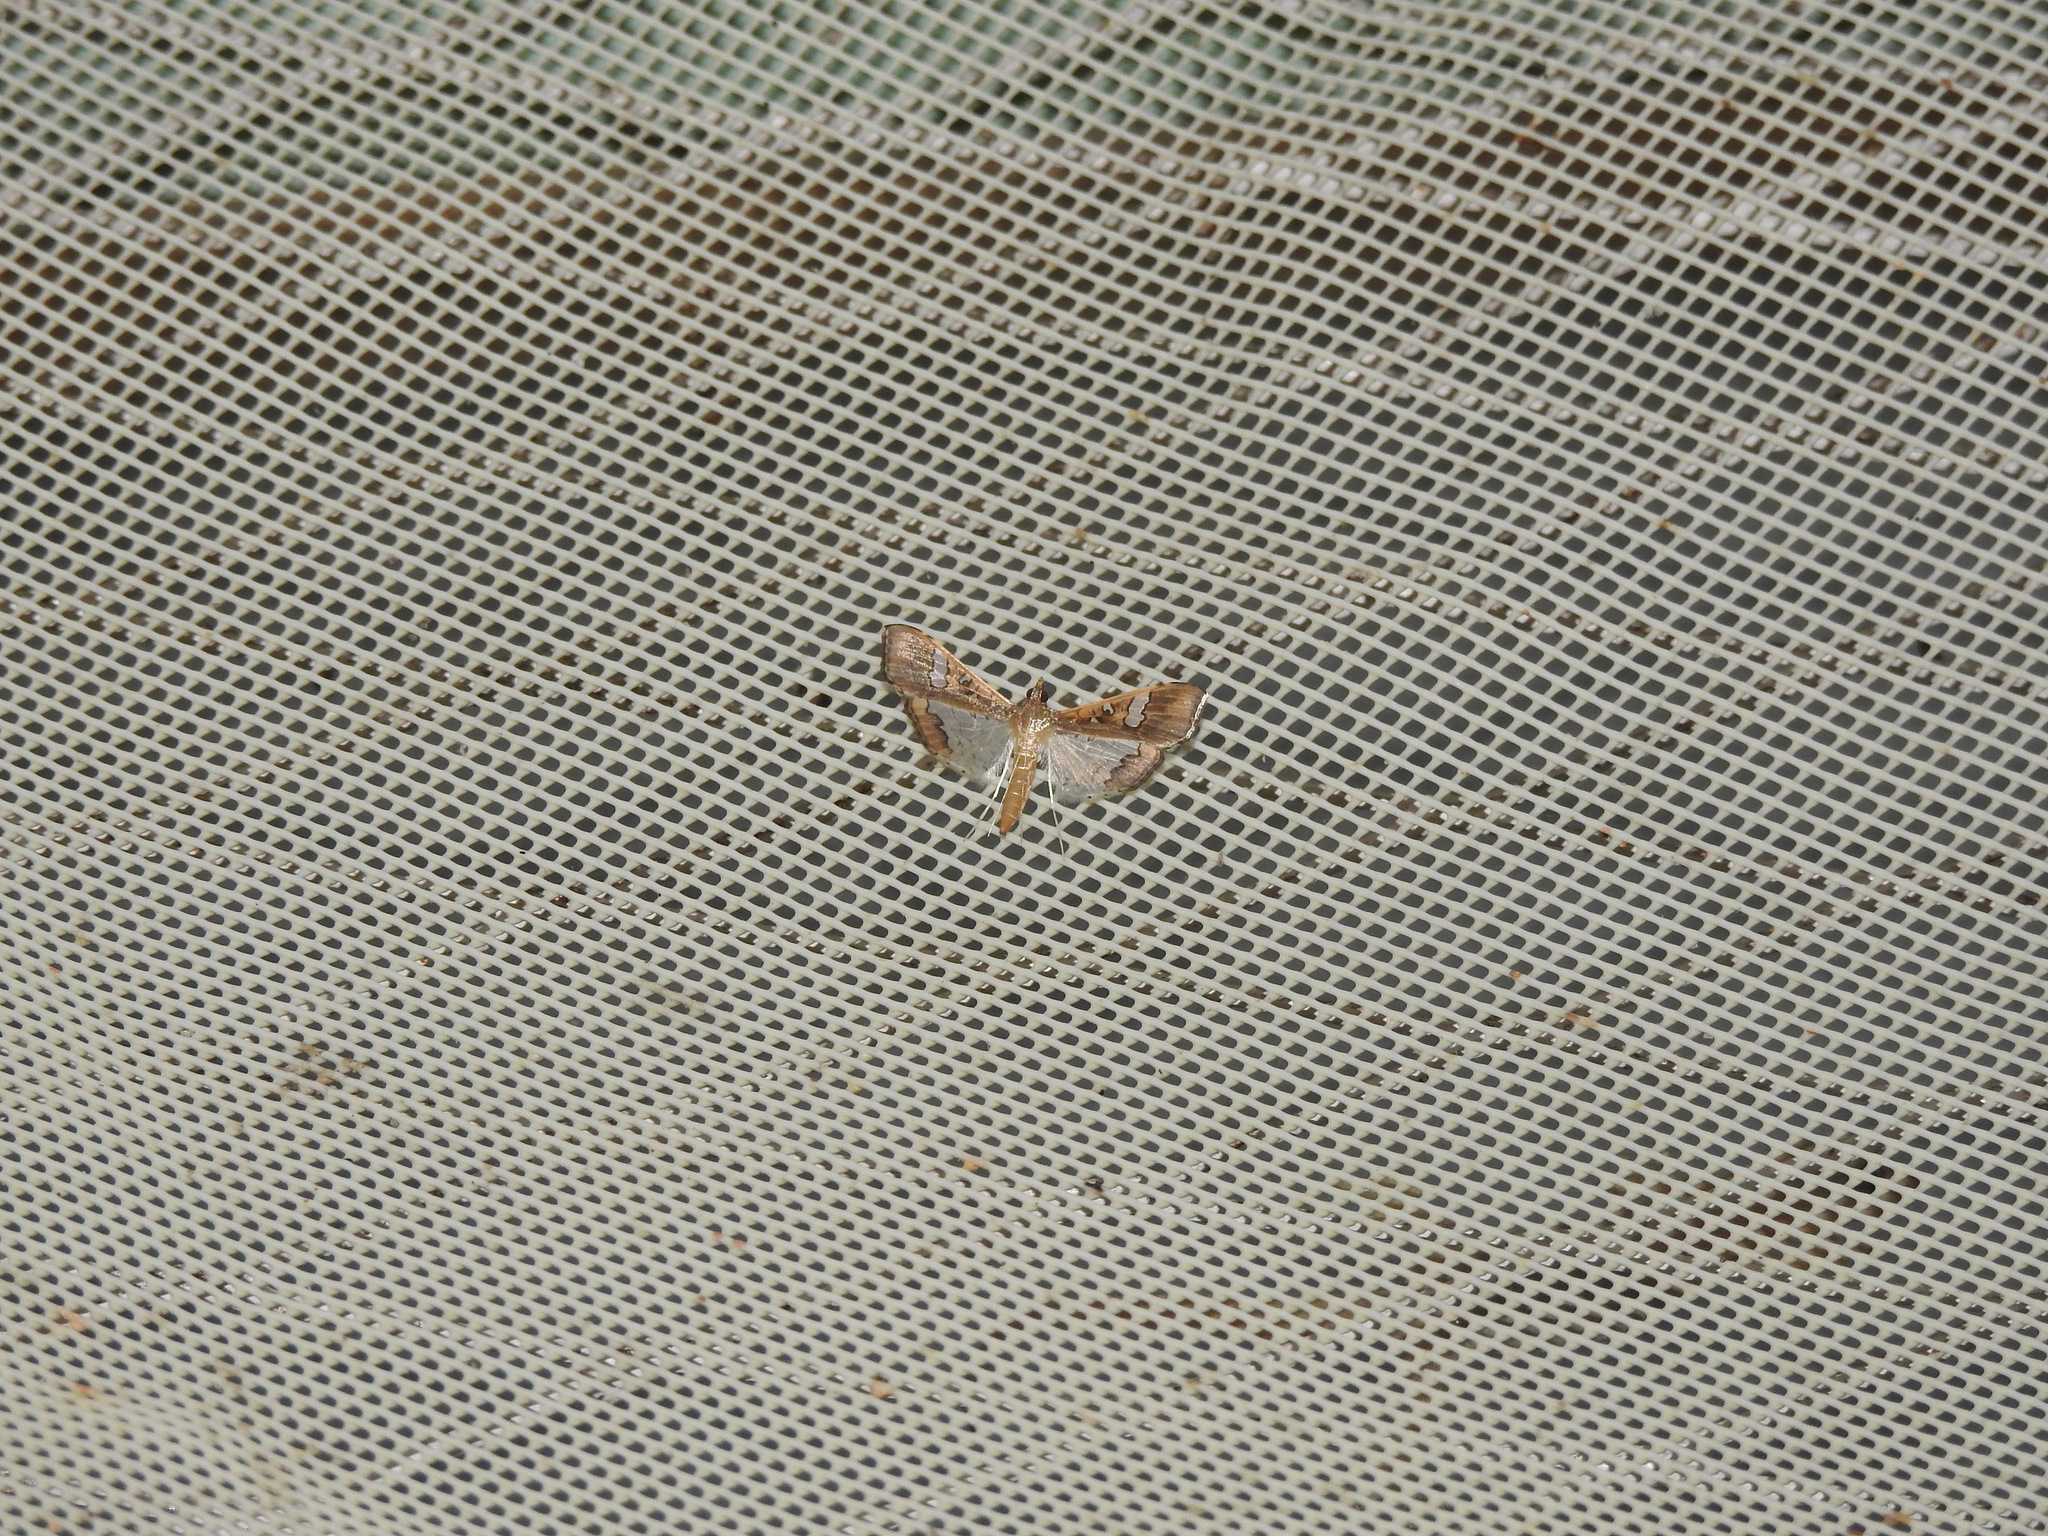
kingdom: Animalia
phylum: Arthropoda
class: Insecta
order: Lepidoptera
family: Crambidae
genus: Maruca
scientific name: Maruca vitrata
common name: Maruca pod borer
